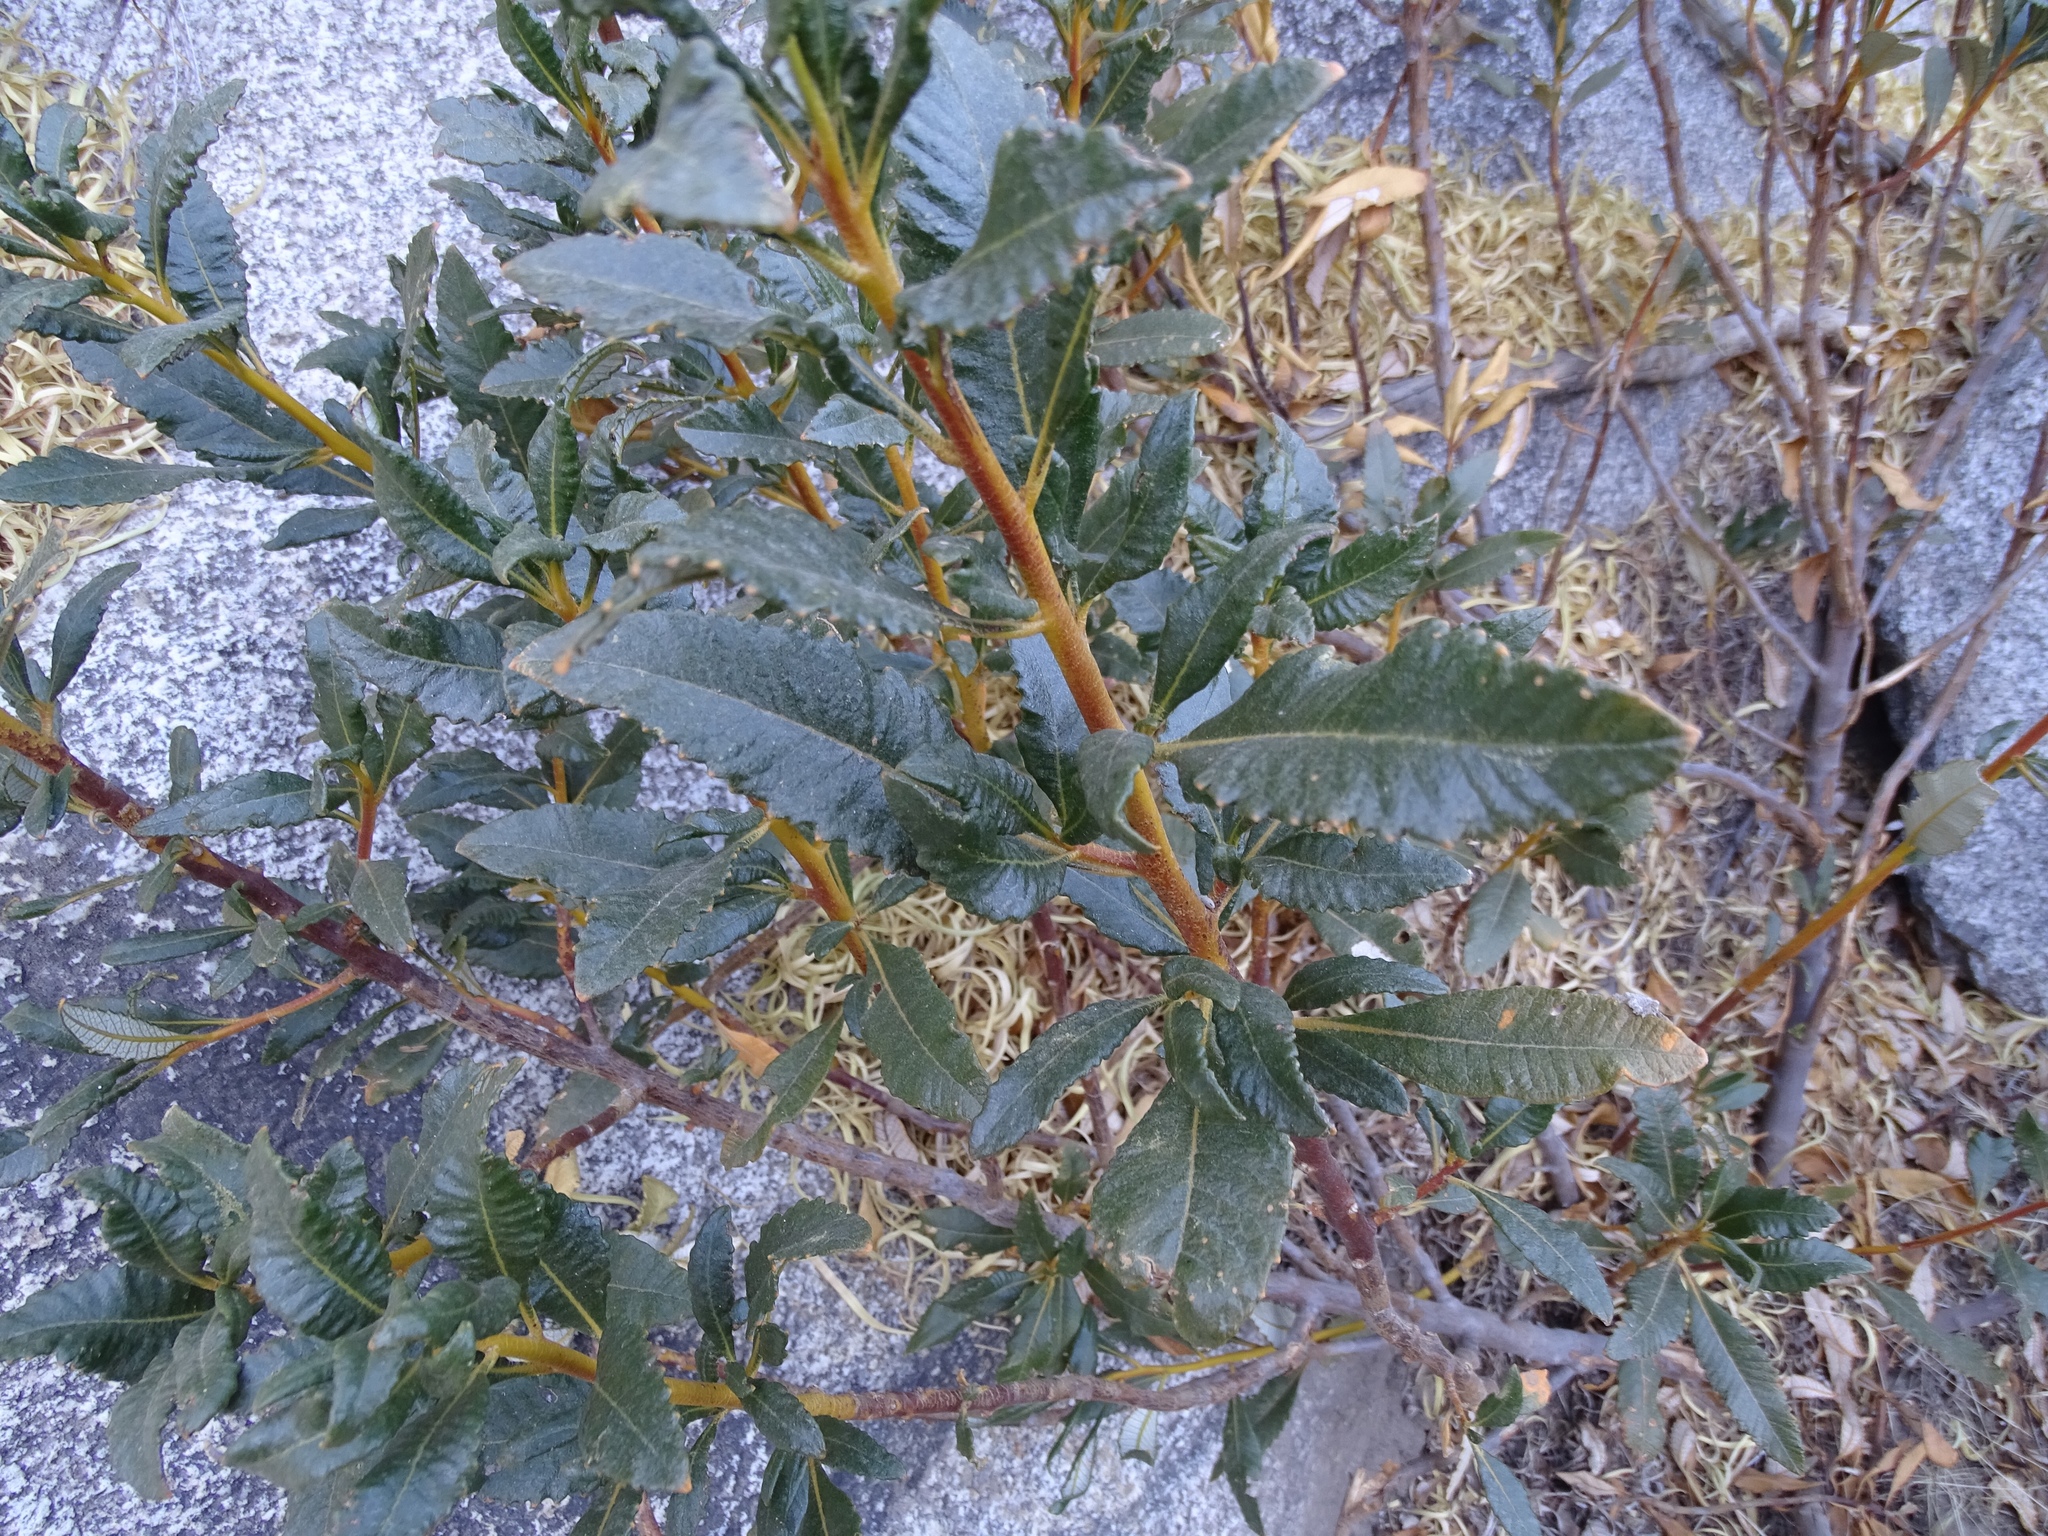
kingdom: Plantae
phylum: Tracheophyta
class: Magnoliopsida
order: Boraginales
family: Namaceae
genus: Eriodictyon
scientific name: Eriodictyon trichocalyx
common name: Hairy yerba-santa
